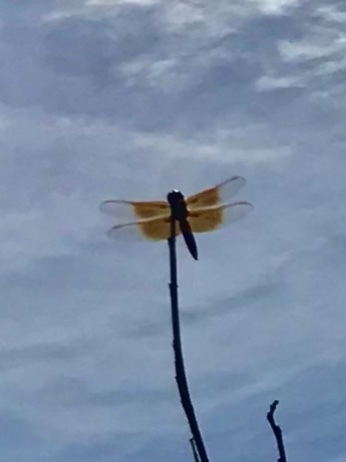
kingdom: Animalia
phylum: Arthropoda
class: Insecta
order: Odonata
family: Libellulidae
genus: Libellula
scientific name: Libellula saturata
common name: Flame skimmer
